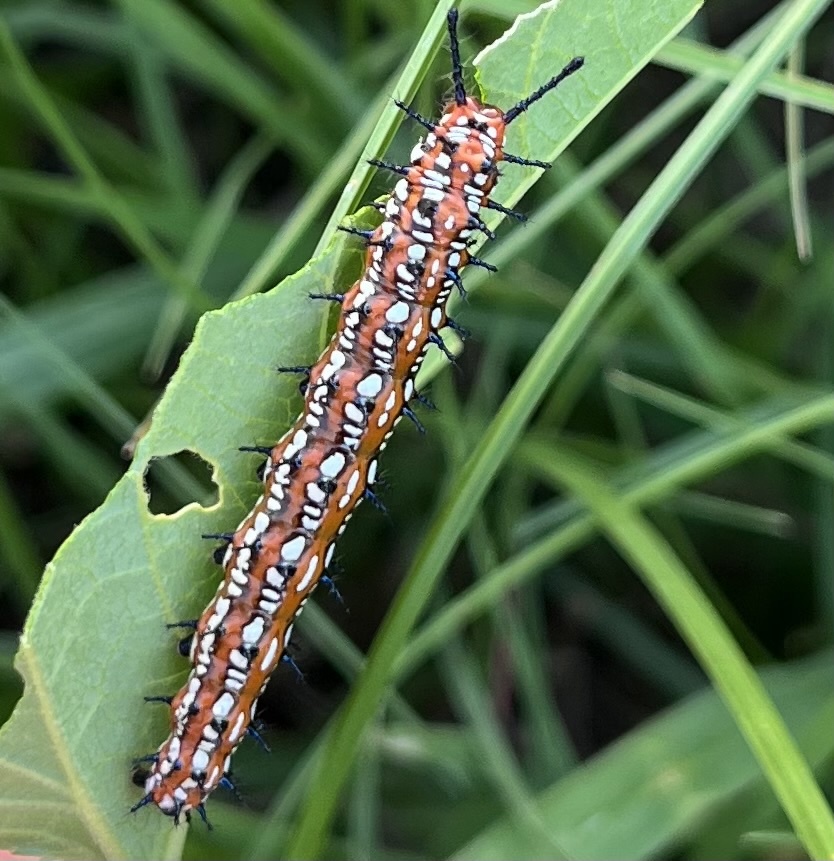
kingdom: Animalia
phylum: Arthropoda
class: Insecta
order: Lepidoptera
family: Nymphalidae
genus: Euptoieta
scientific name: Euptoieta claudia
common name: Variegated fritillary
